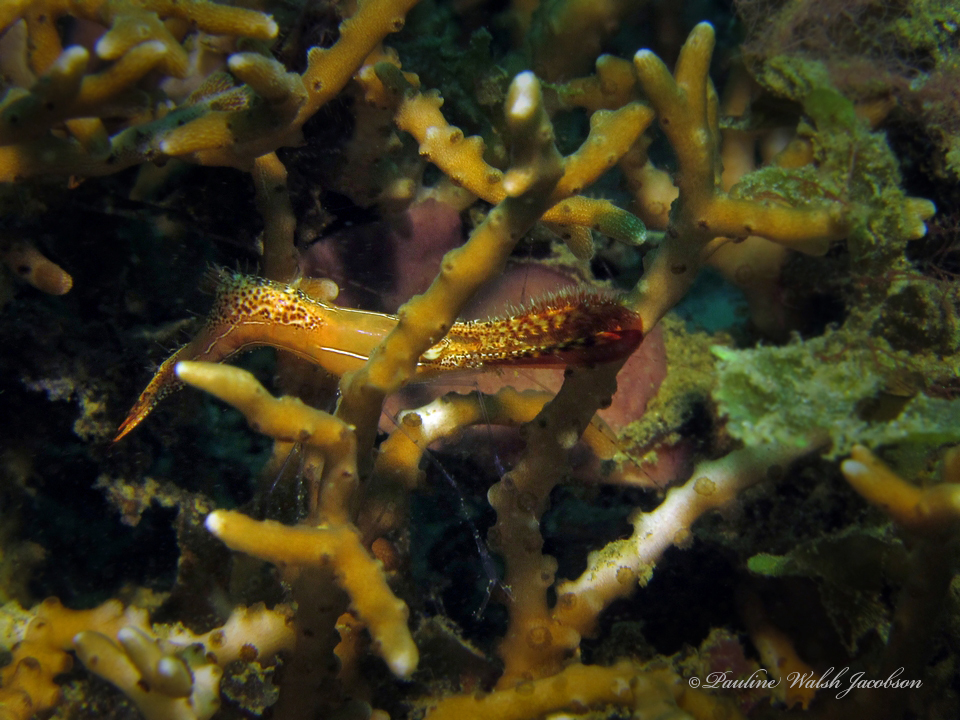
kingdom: Animalia
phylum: Arthropoda
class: Malacostraca
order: Decapoda
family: Palaemonidae
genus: Leander
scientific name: Leander plumosus
